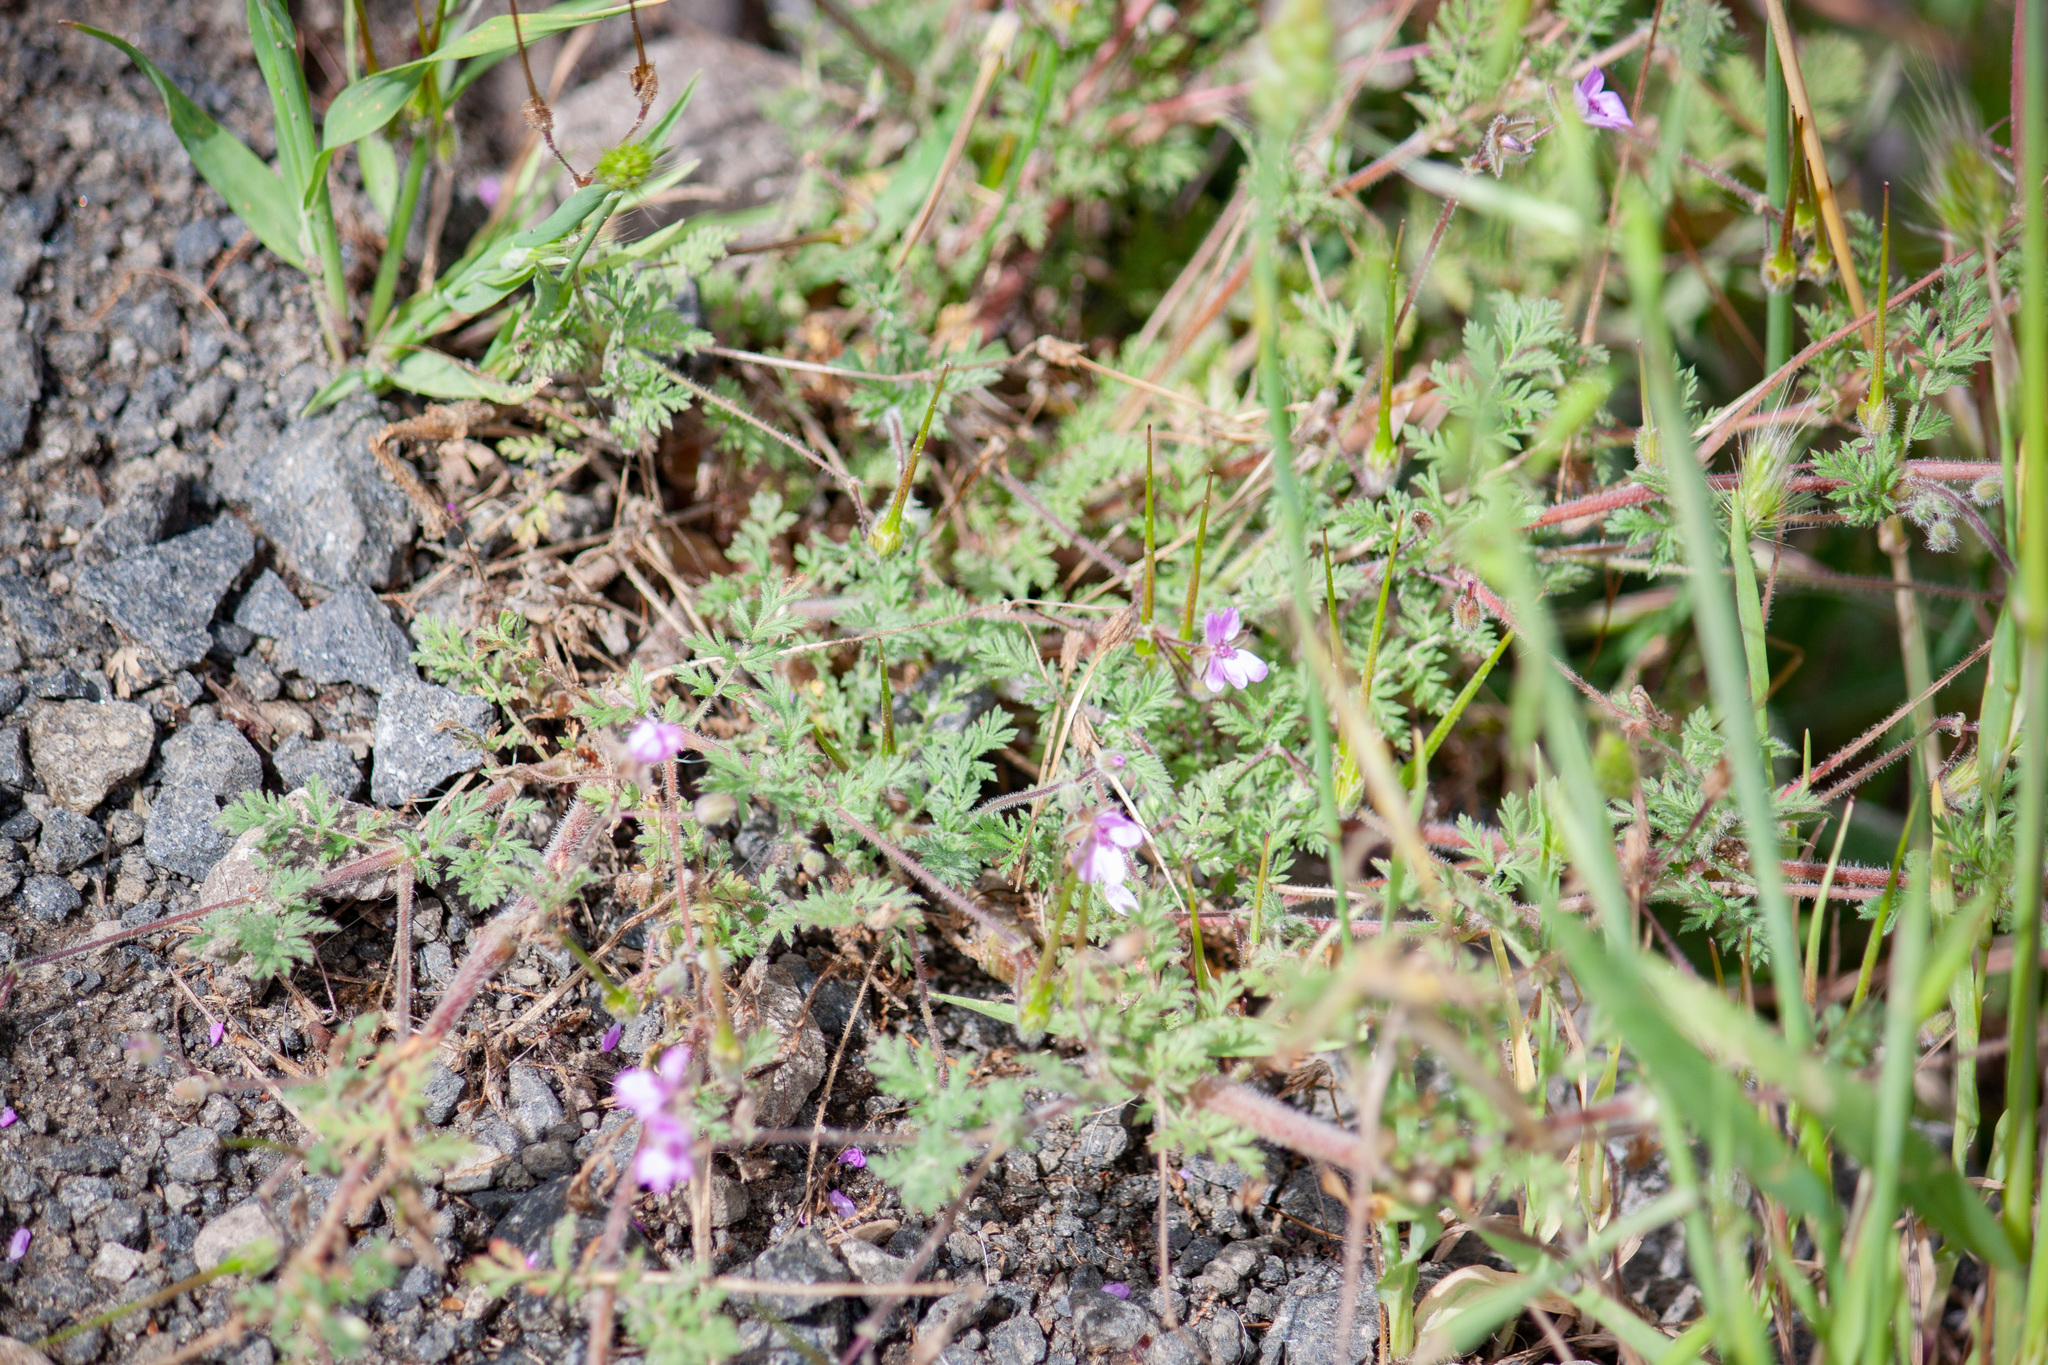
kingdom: Plantae
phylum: Tracheophyta
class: Magnoliopsida
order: Geraniales
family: Geraniaceae
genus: Erodium
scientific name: Erodium cicutarium
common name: Common stork's-bill
